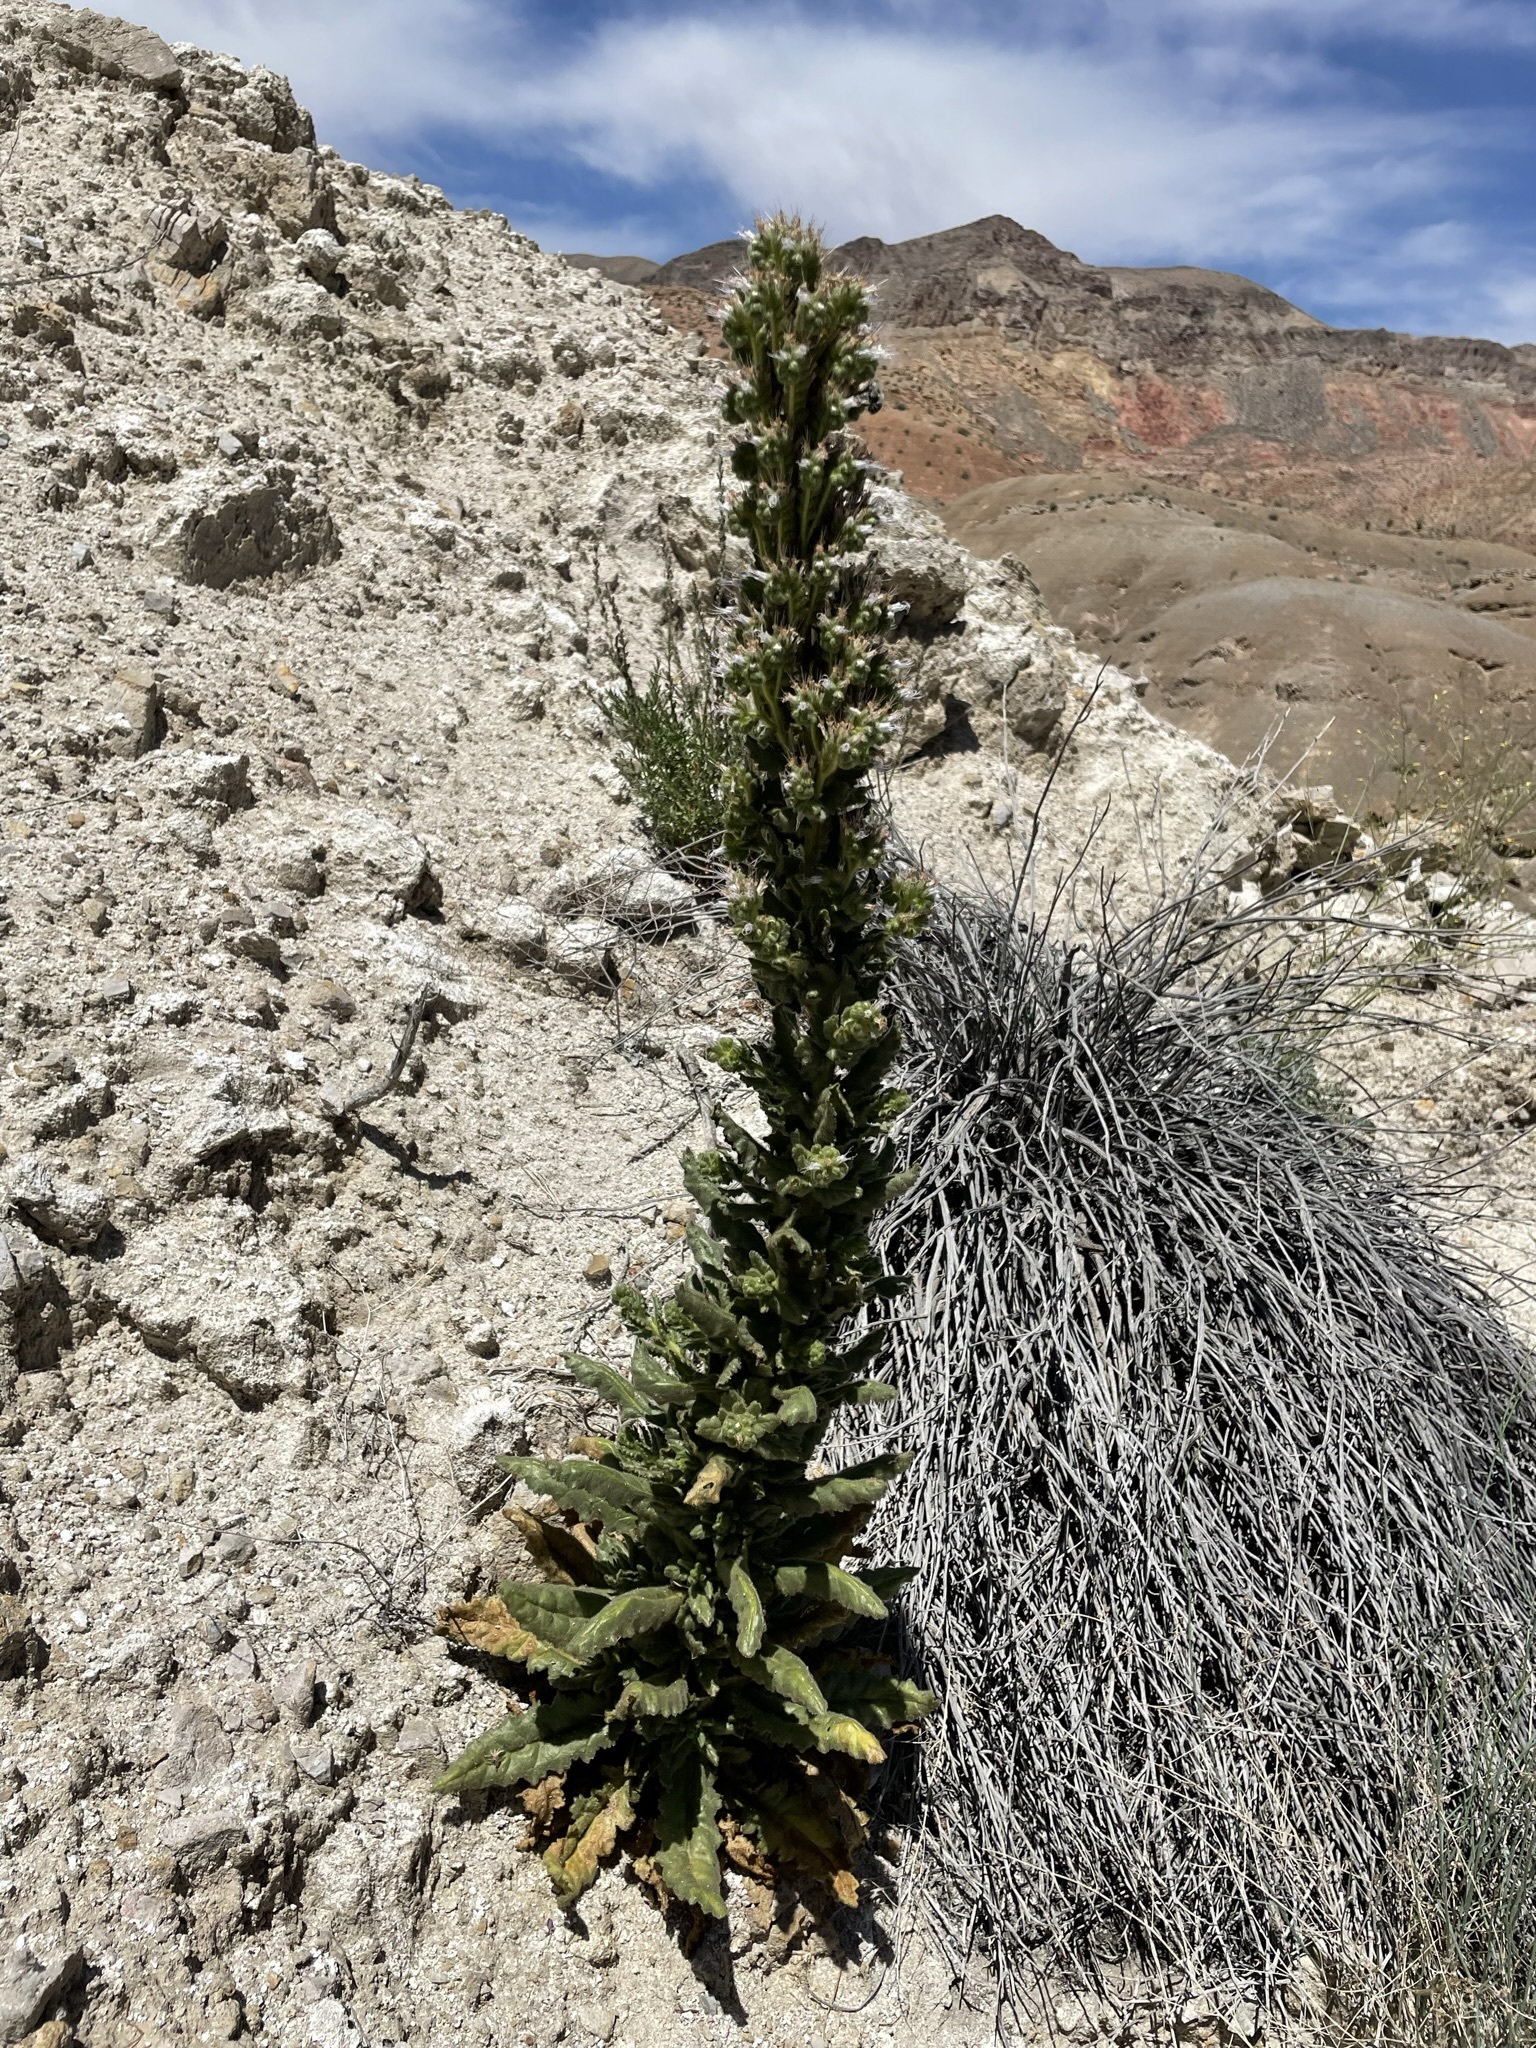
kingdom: Plantae
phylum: Tracheophyta
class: Magnoliopsida
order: Boraginales
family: Hydrophyllaceae
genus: Phacelia
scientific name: Phacelia palmeri
